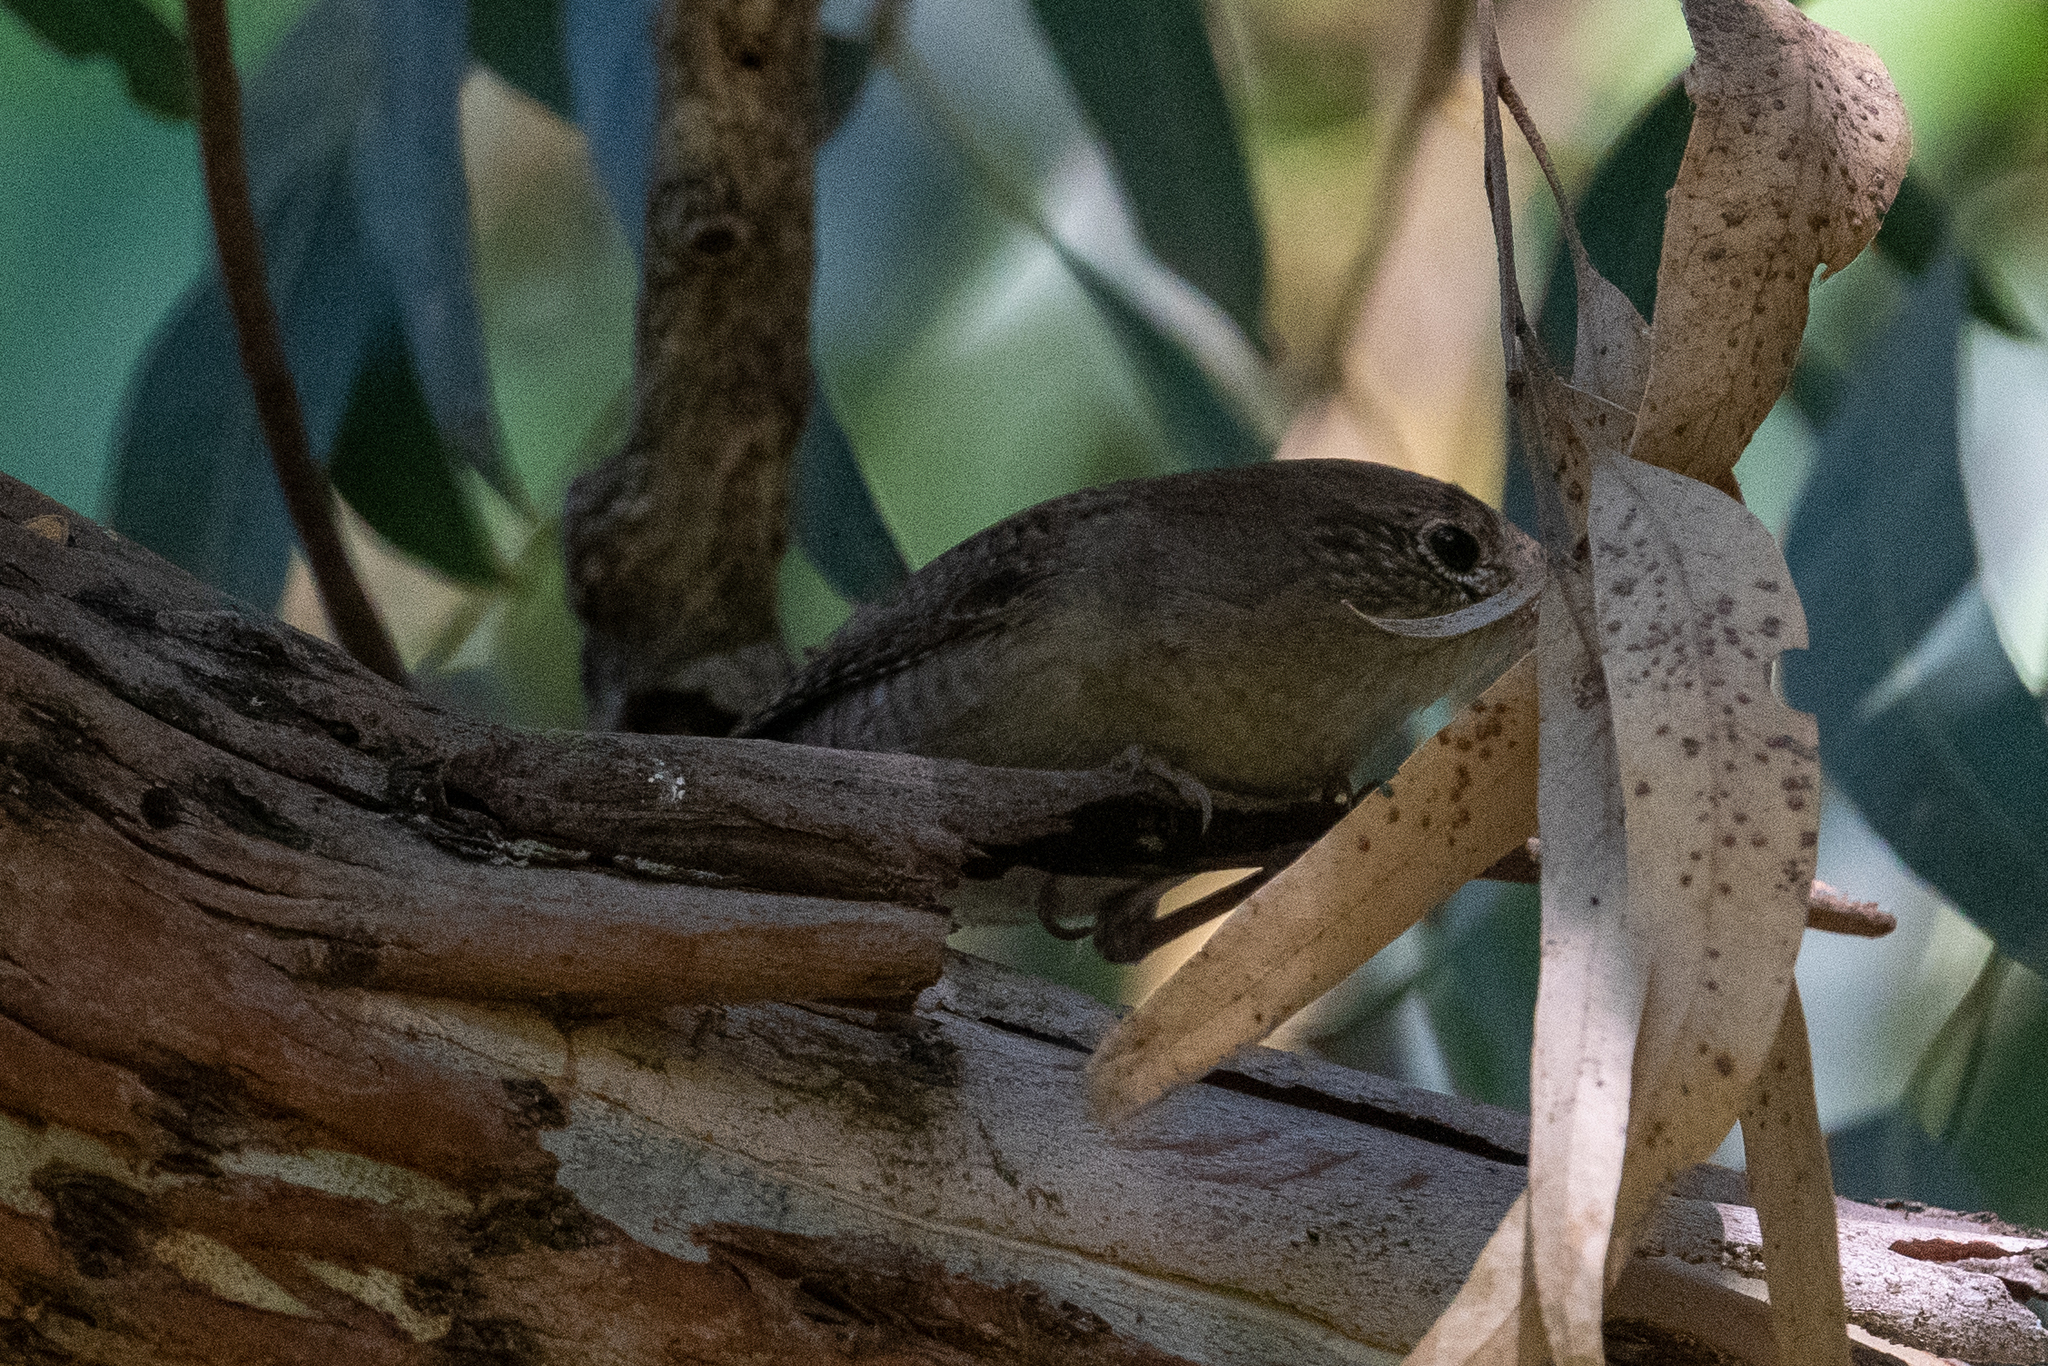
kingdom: Animalia
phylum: Chordata
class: Aves
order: Passeriformes
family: Troglodytidae
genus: Troglodytes
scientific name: Troglodytes aedon
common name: House wren
